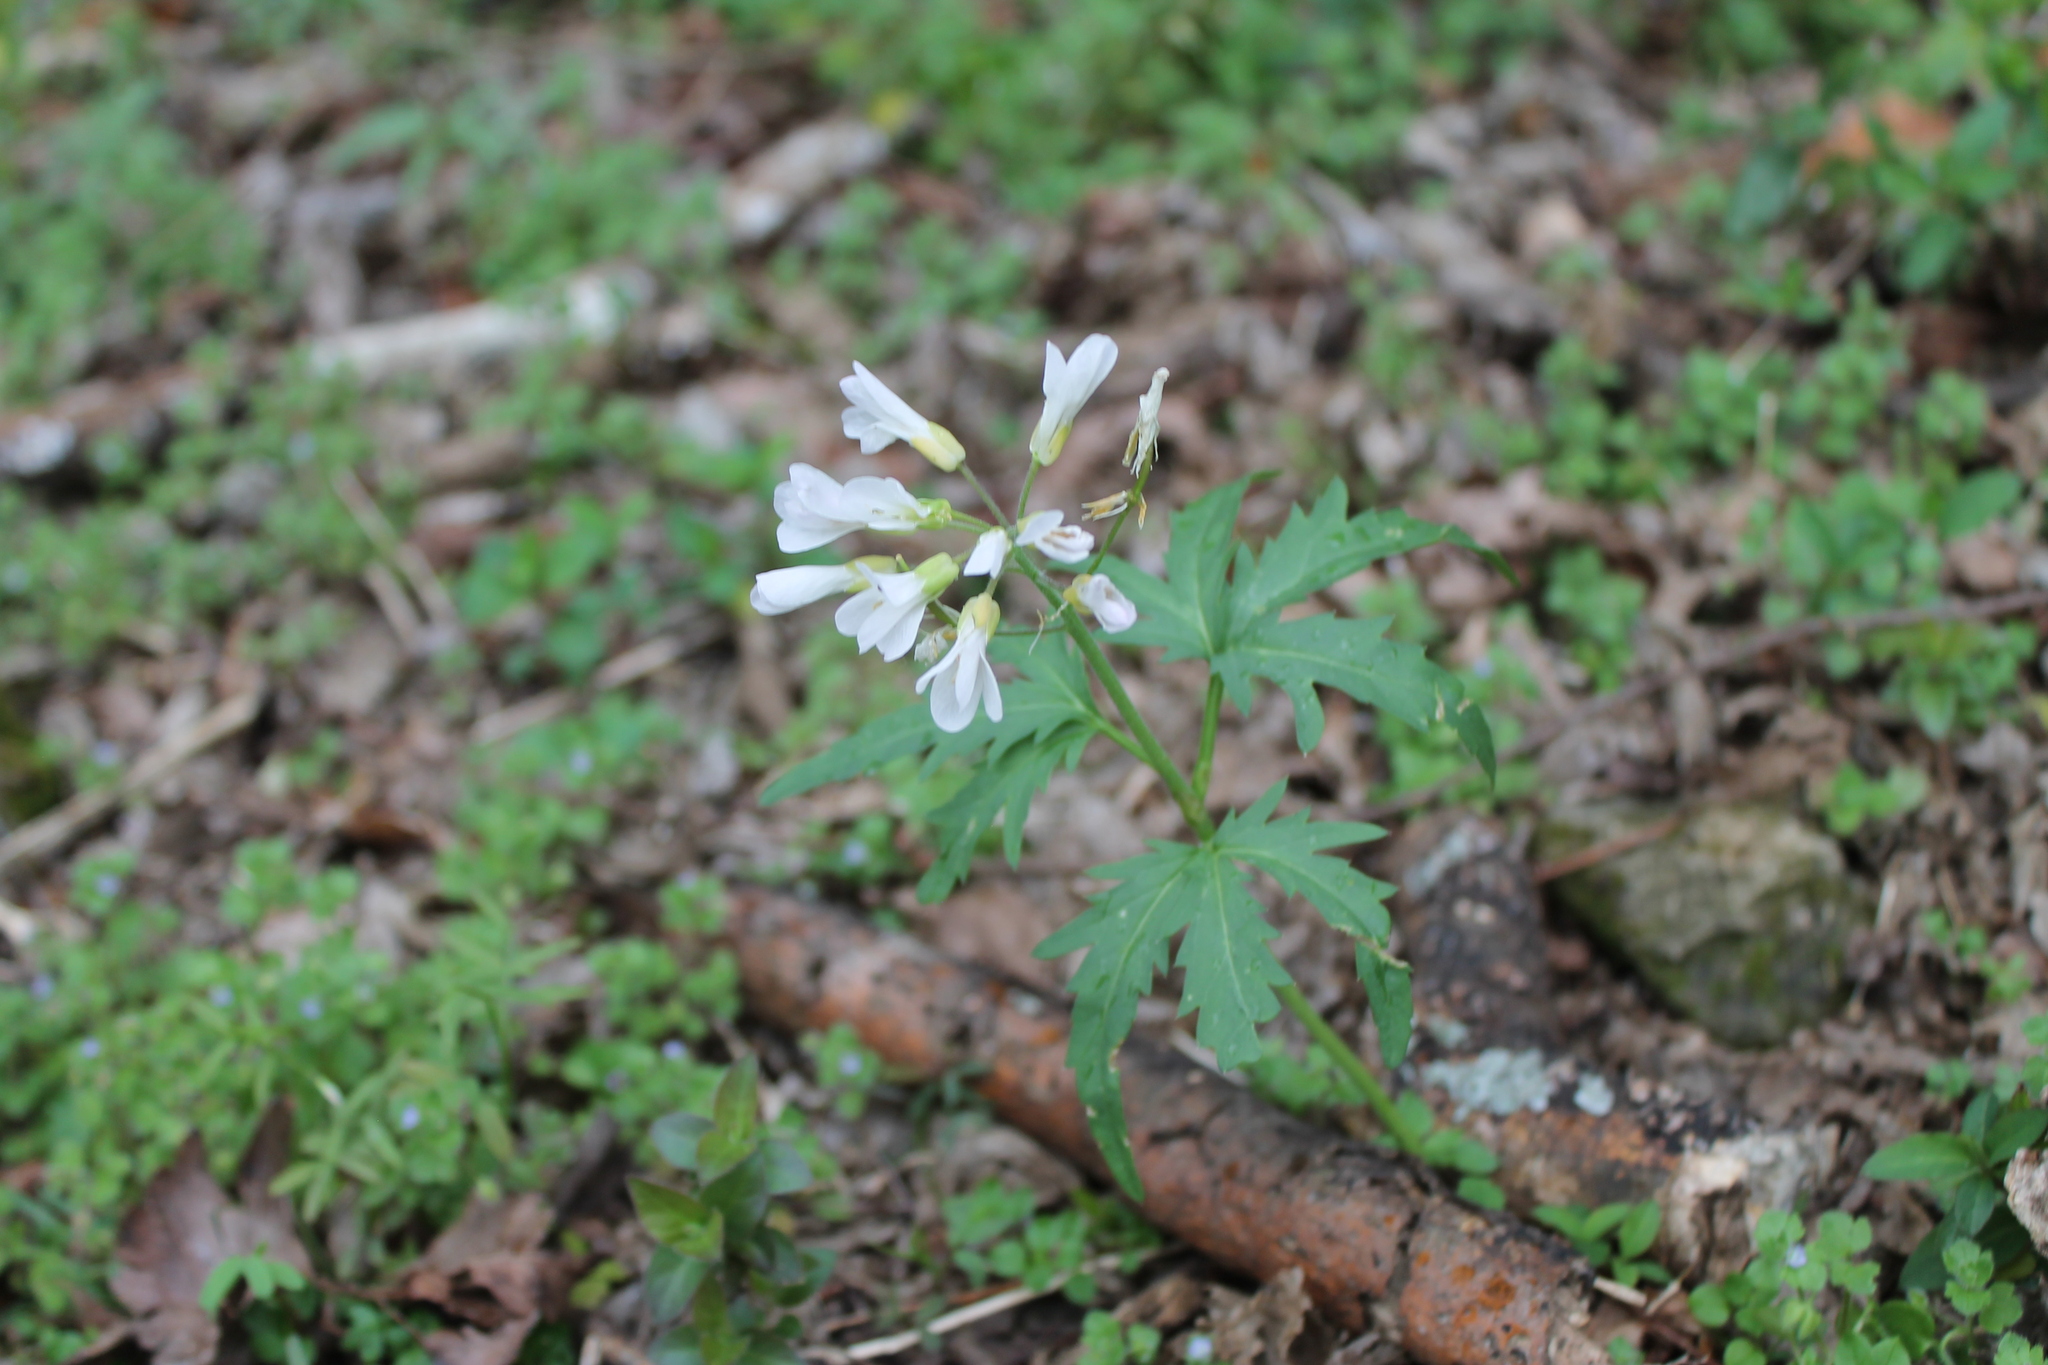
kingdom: Plantae
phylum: Tracheophyta
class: Magnoliopsida
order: Brassicales
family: Brassicaceae
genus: Cardamine
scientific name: Cardamine concatenata
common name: Cut-leaf toothcup
